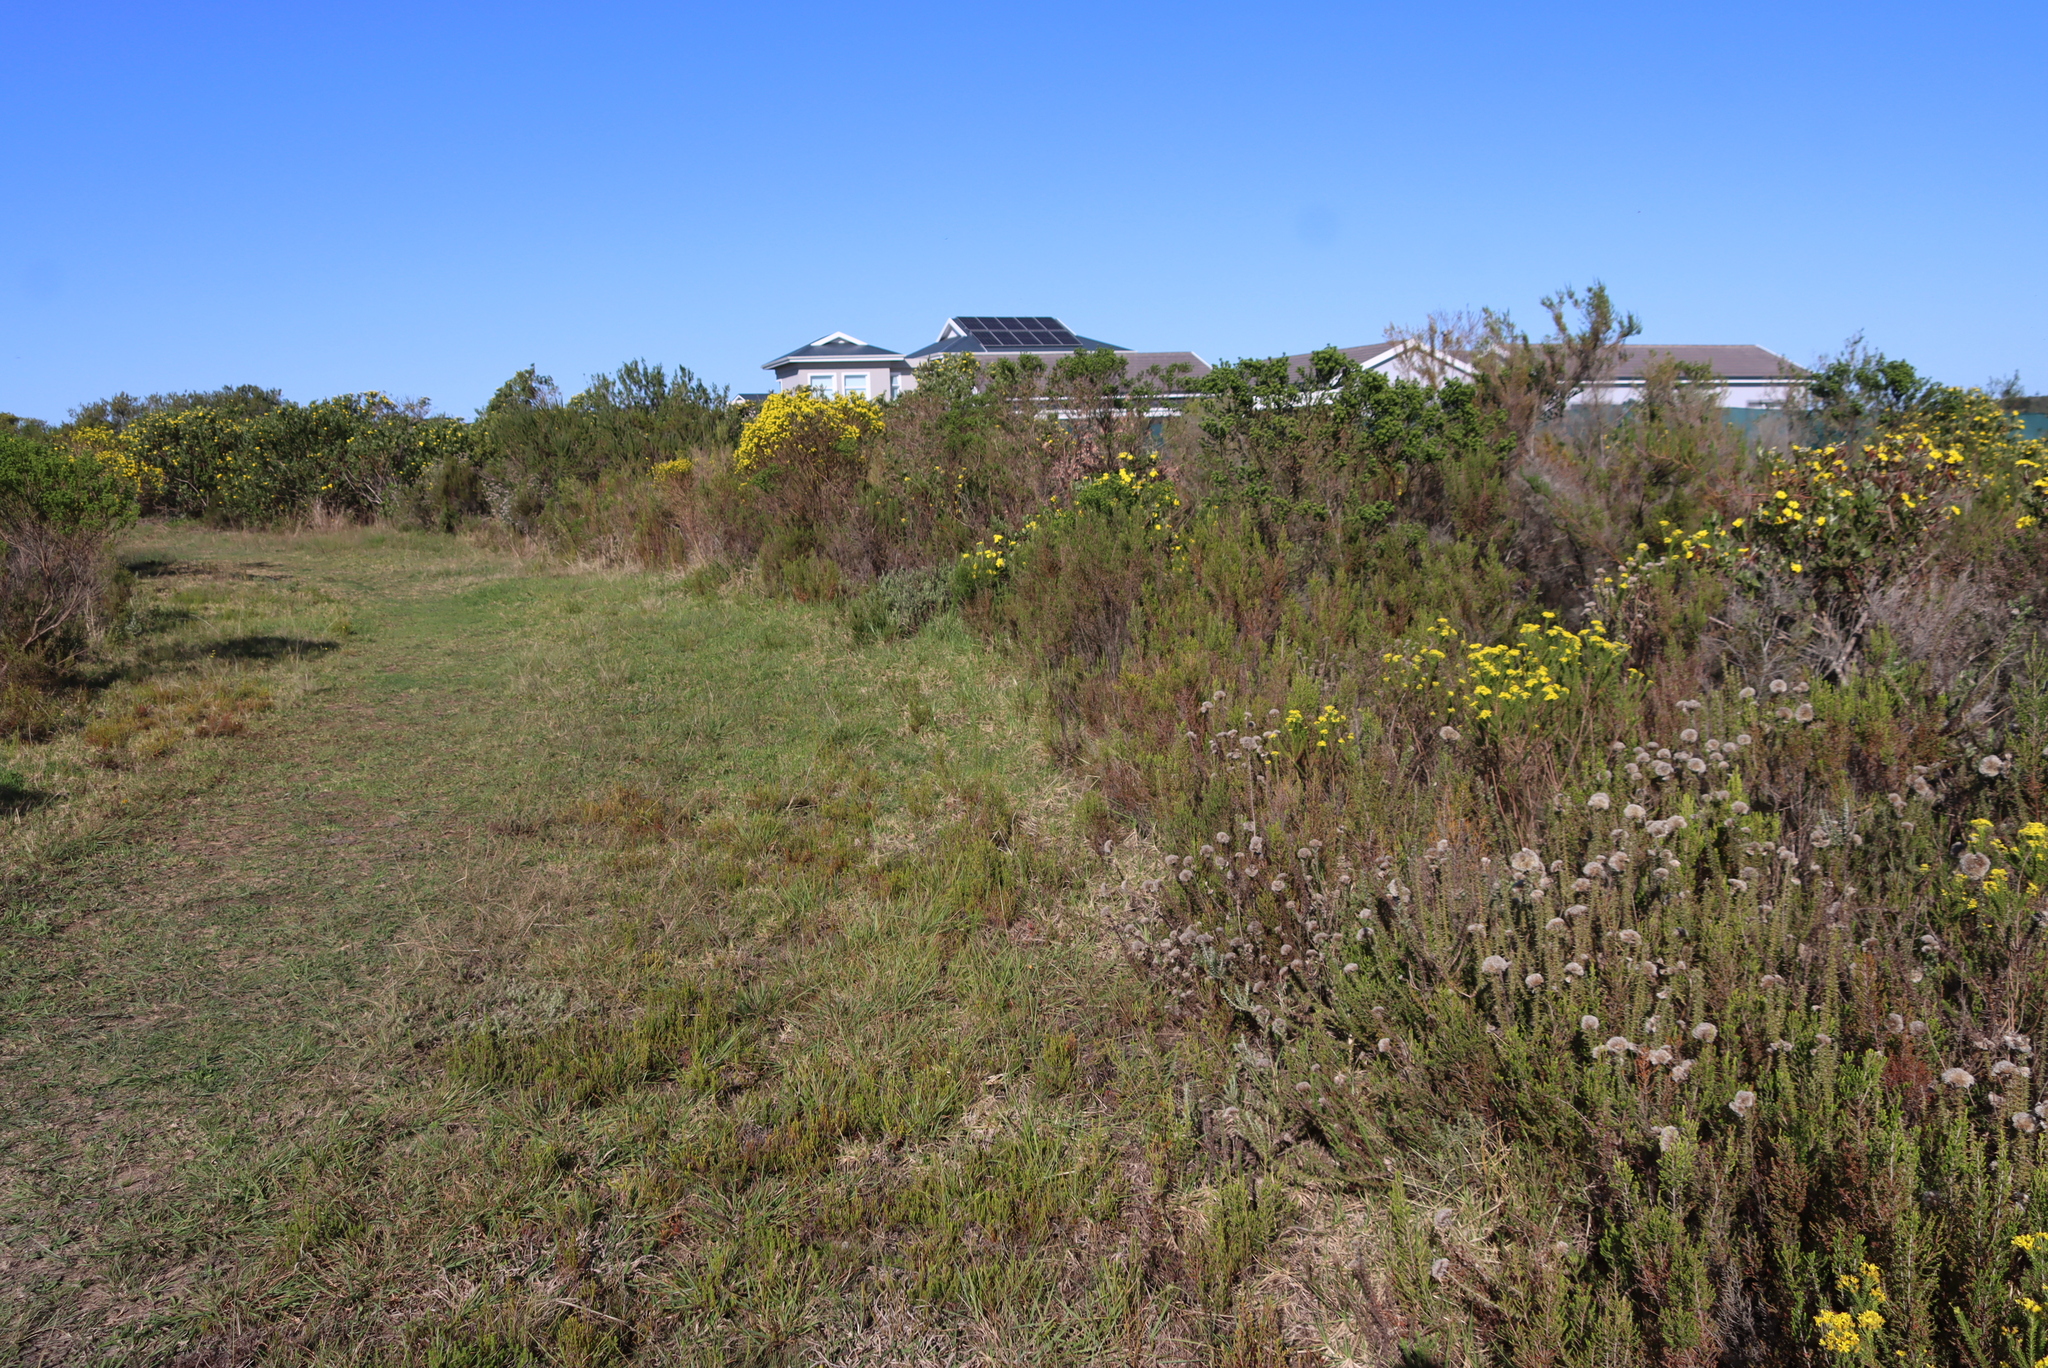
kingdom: Plantae
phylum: Tracheophyta
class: Magnoliopsida
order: Asterales
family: Asteraceae
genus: Euryops
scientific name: Euryops virgineus
